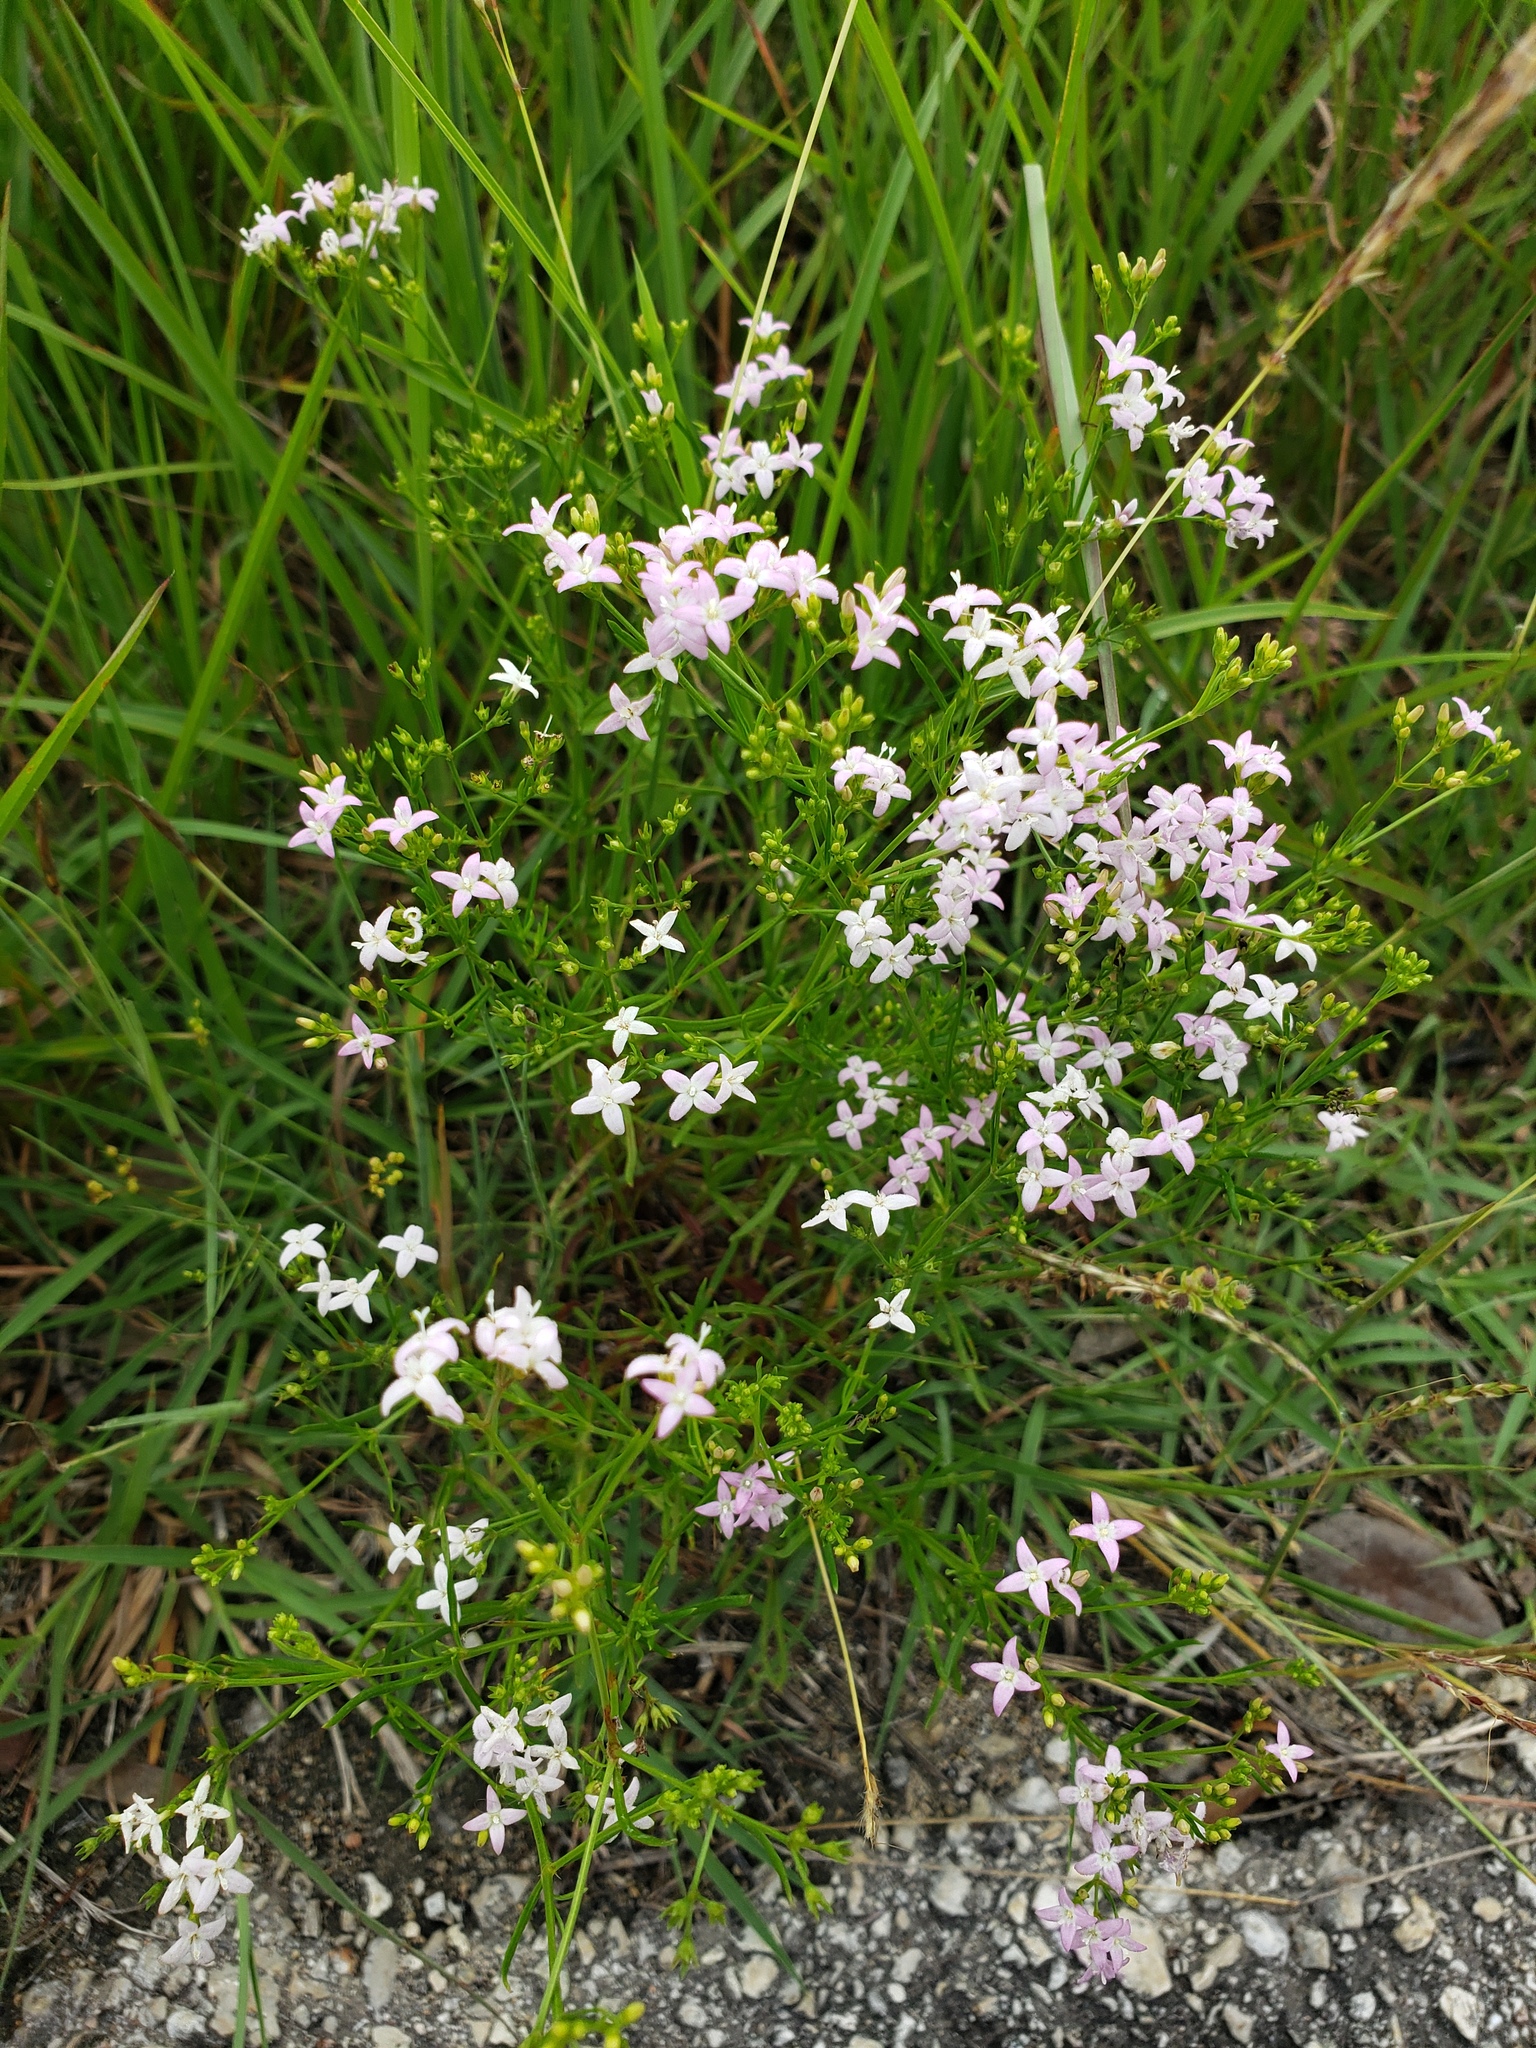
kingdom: Plantae
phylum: Tracheophyta
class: Magnoliopsida
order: Gentianales
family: Rubiaceae
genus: Stenaria
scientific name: Stenaria nigricans
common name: Diamondflowers
